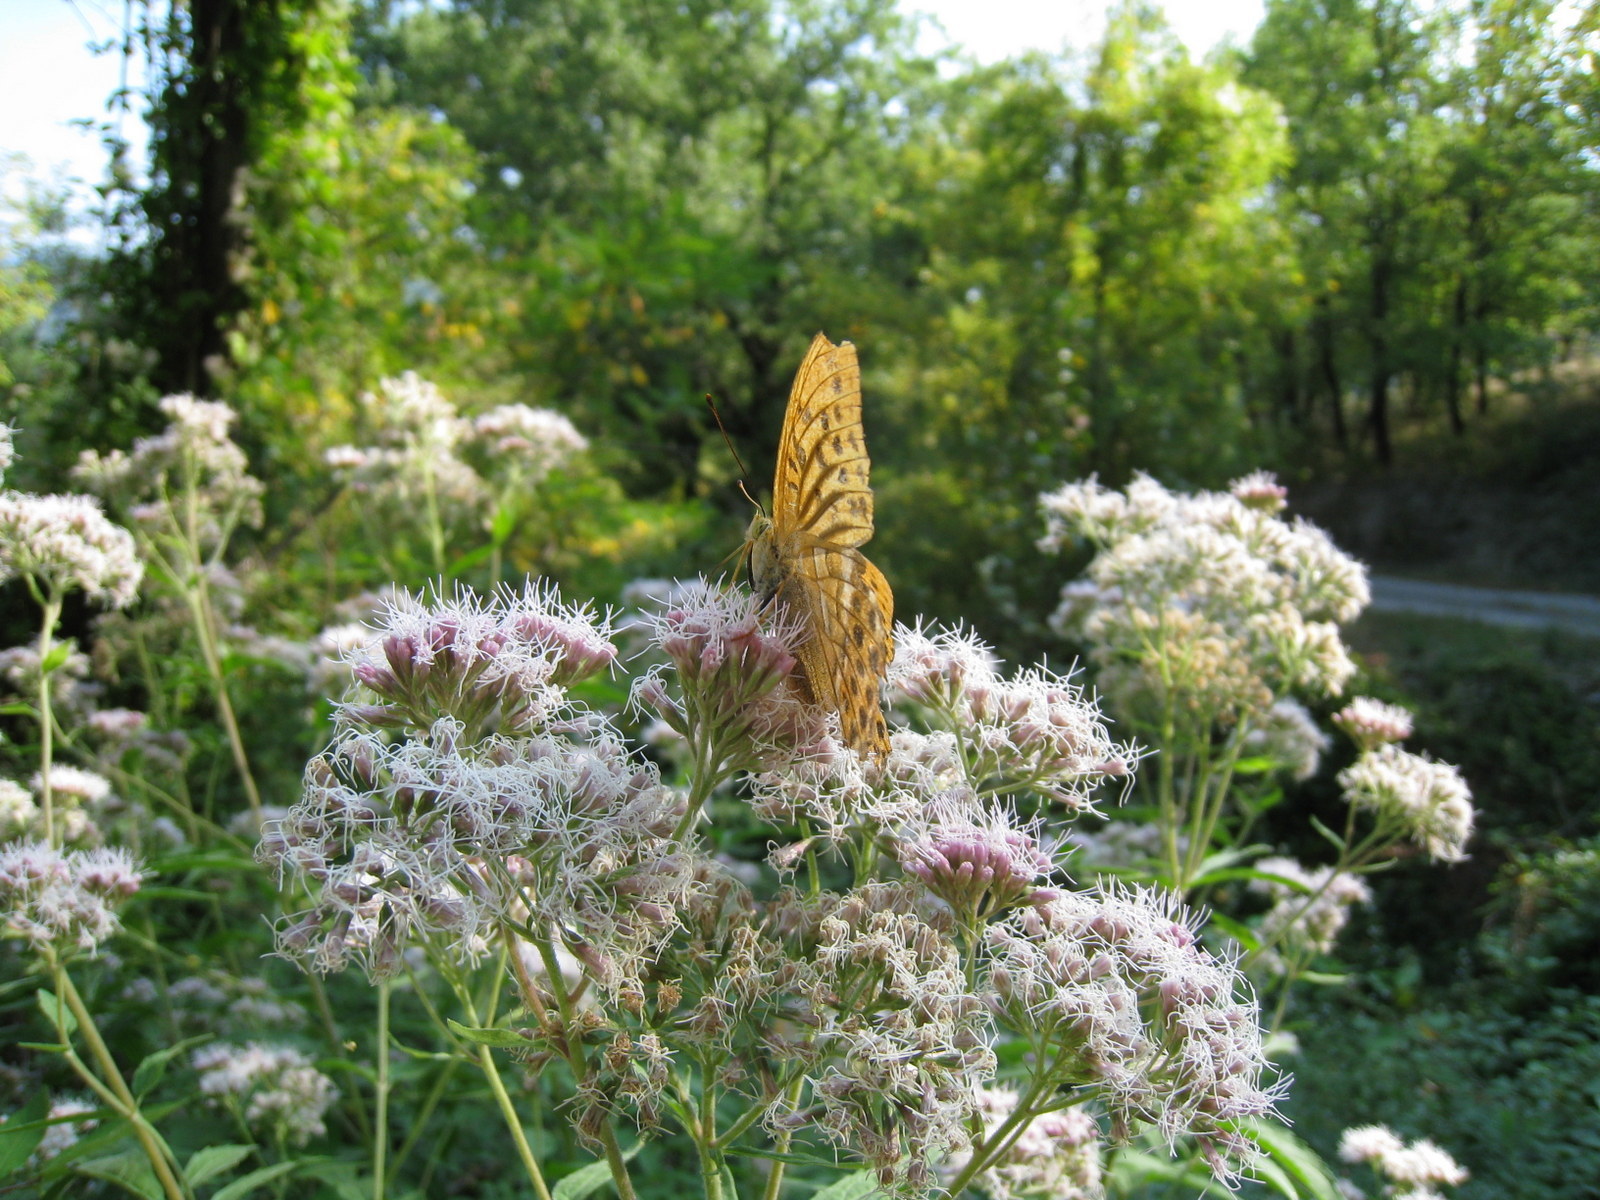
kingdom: Animalia
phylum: Arthropoda
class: Insecta
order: Lepidoptera
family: Nymphalidae
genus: Argynnis
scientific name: Argynnis paphia
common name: Silver-washed fritillary
